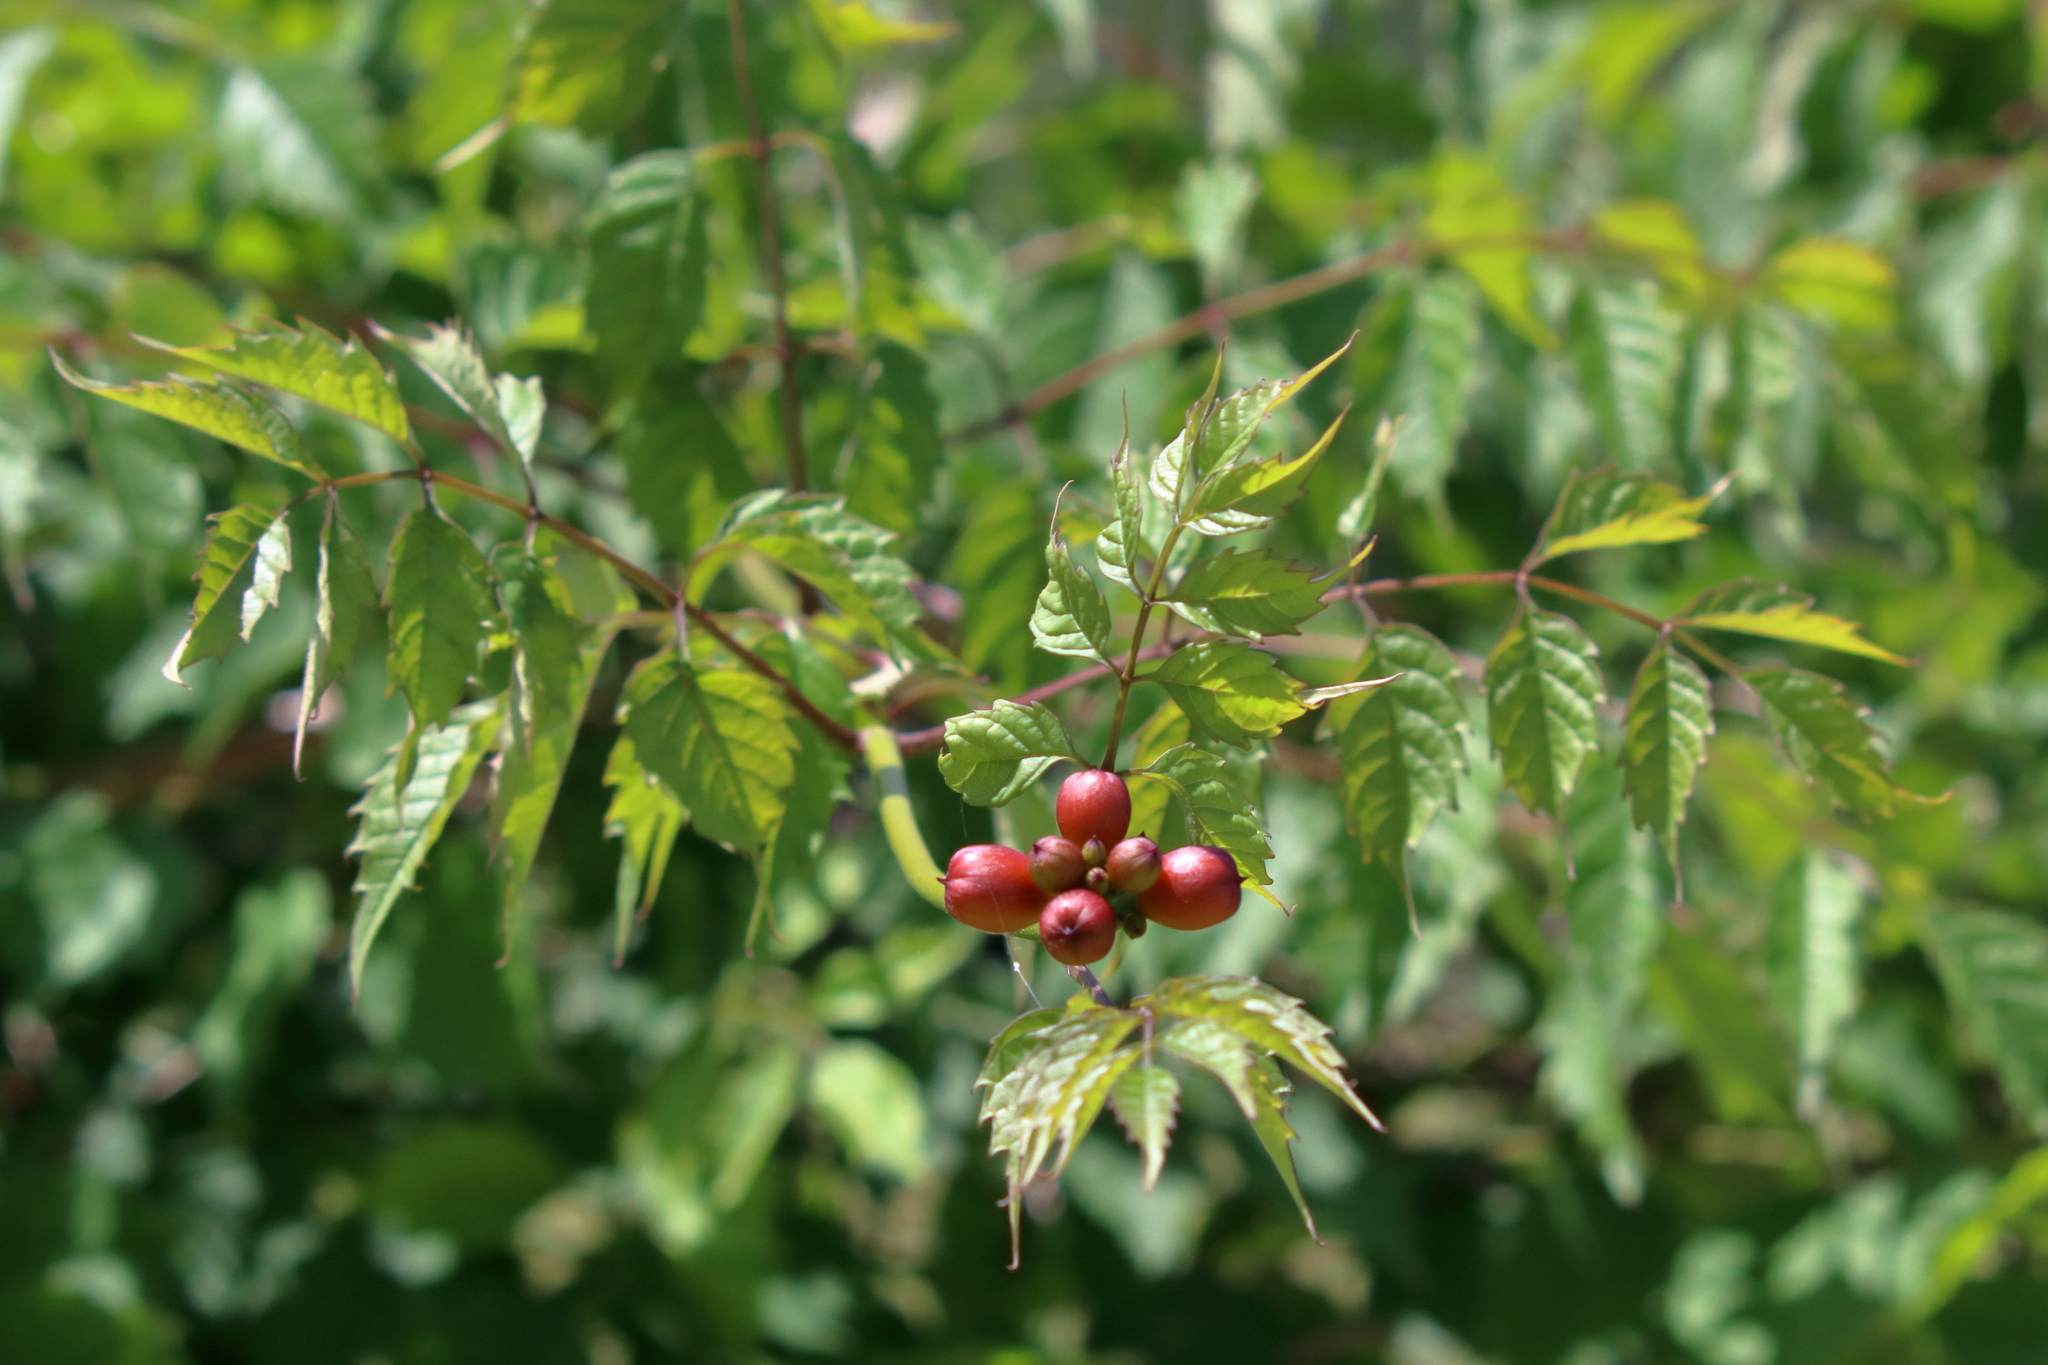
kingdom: Plantae
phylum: Tracheophyta
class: Magnoliopsida
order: Lamiales
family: Bignoniaceae
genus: Campsis
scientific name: Campsis radicans
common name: Trumpet-creeper
